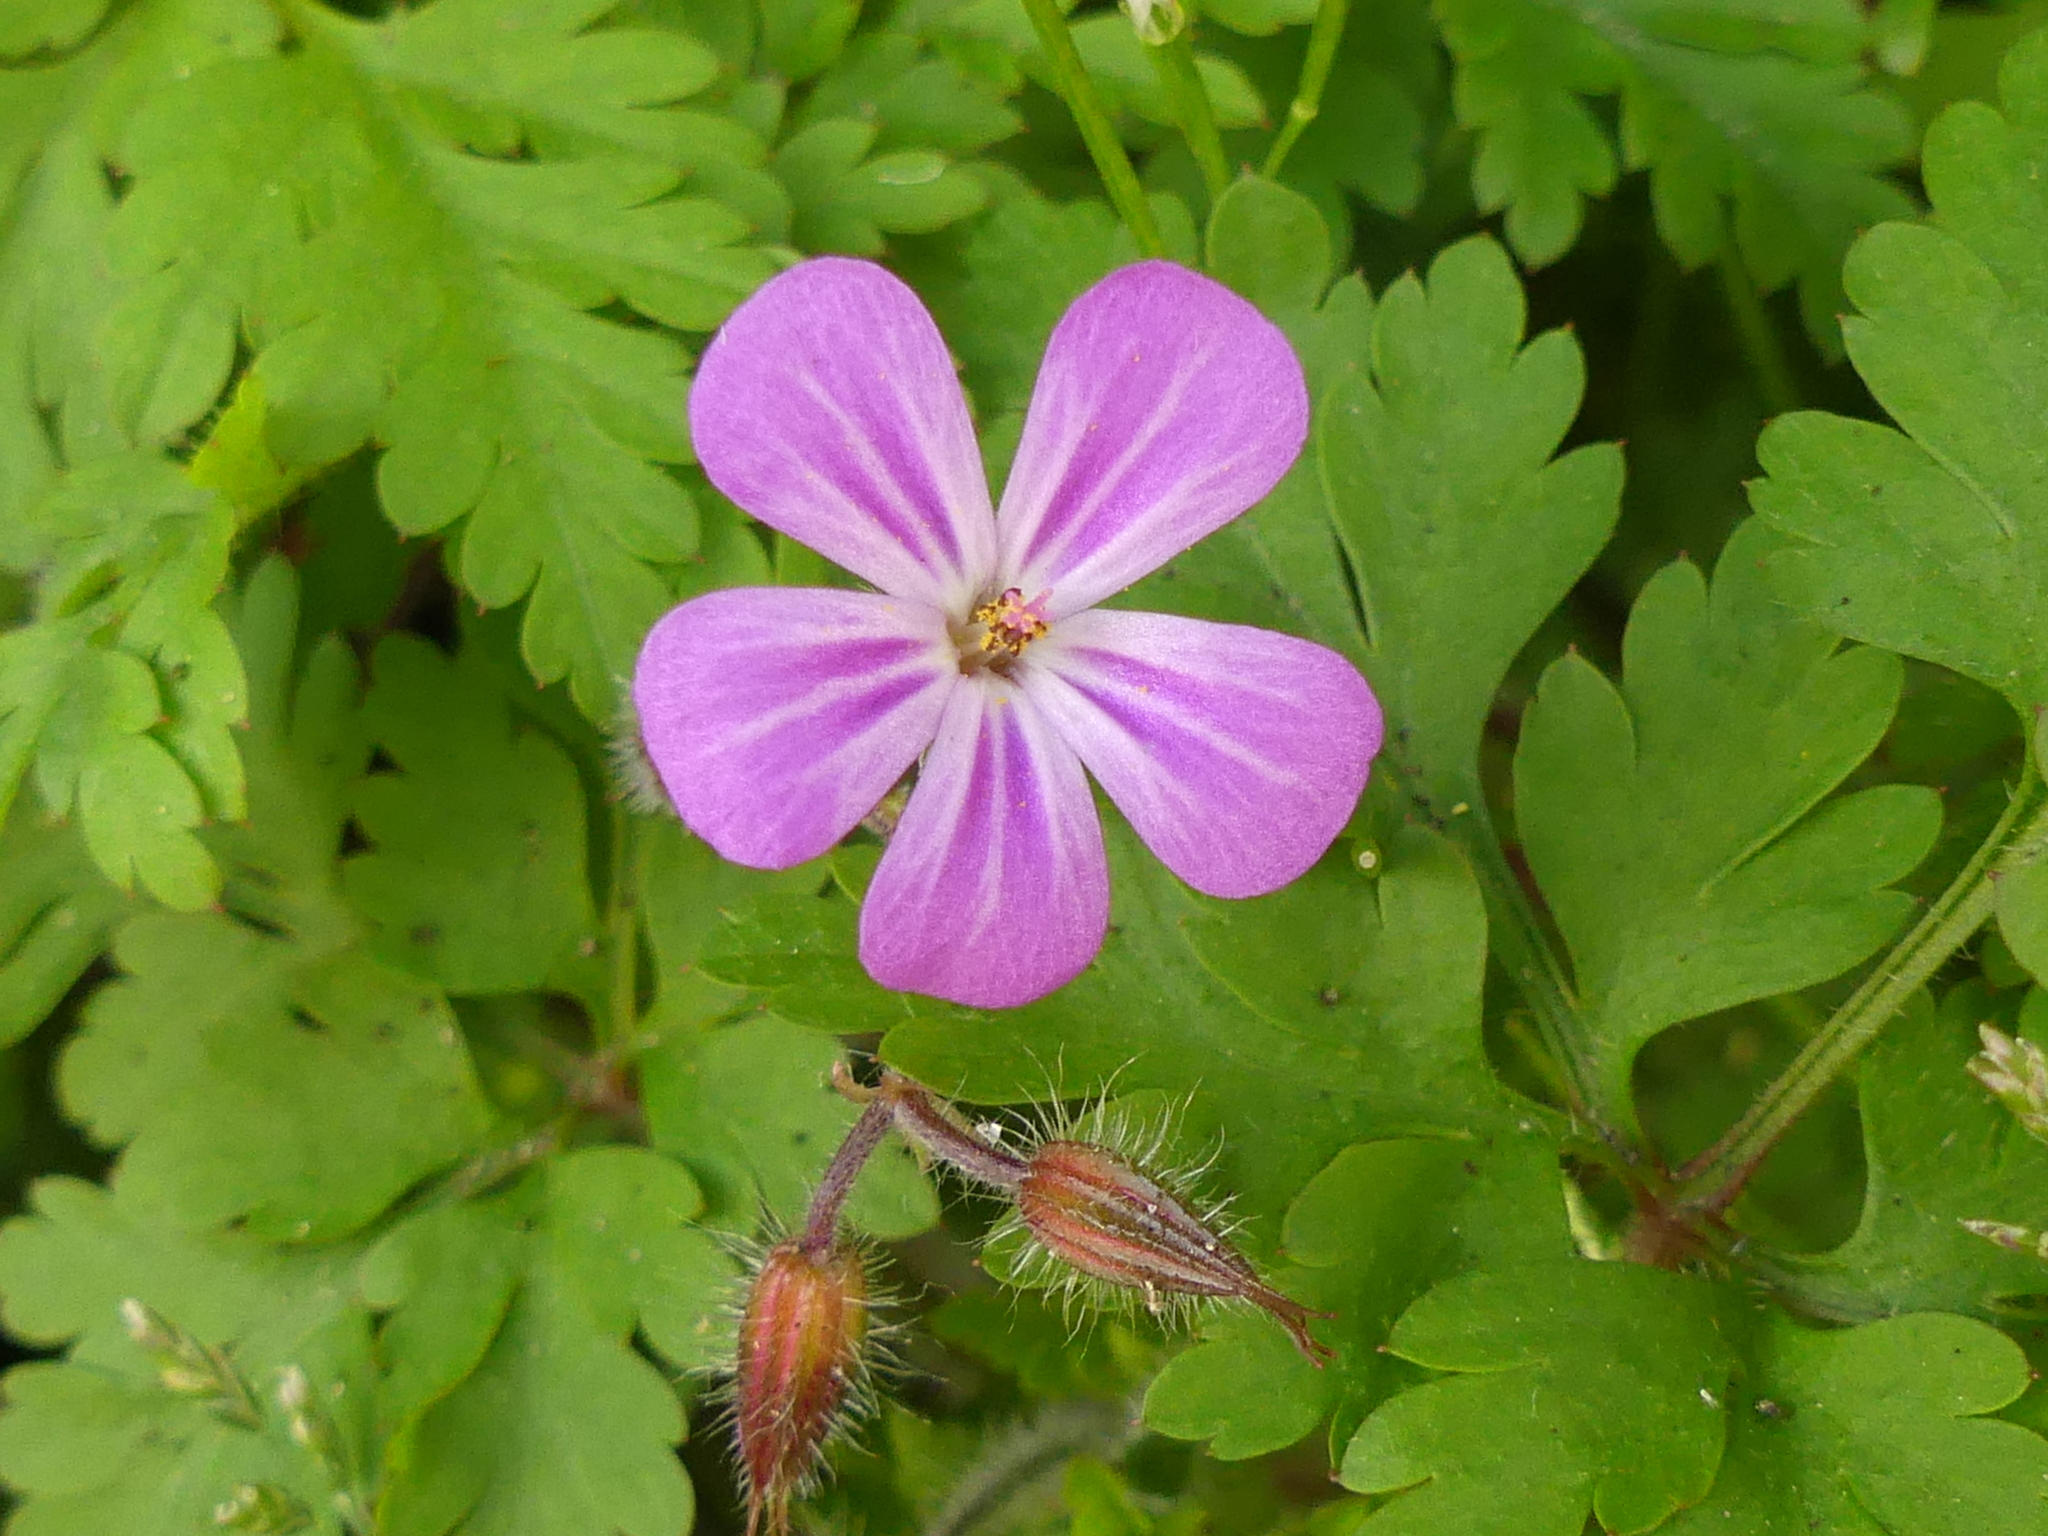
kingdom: Plantae
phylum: Tracheophyta
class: Magnoliopsida
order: Geraniales
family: Geraniaceae
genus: Geranium
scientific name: Geranium robertianum
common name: Herb-robert
